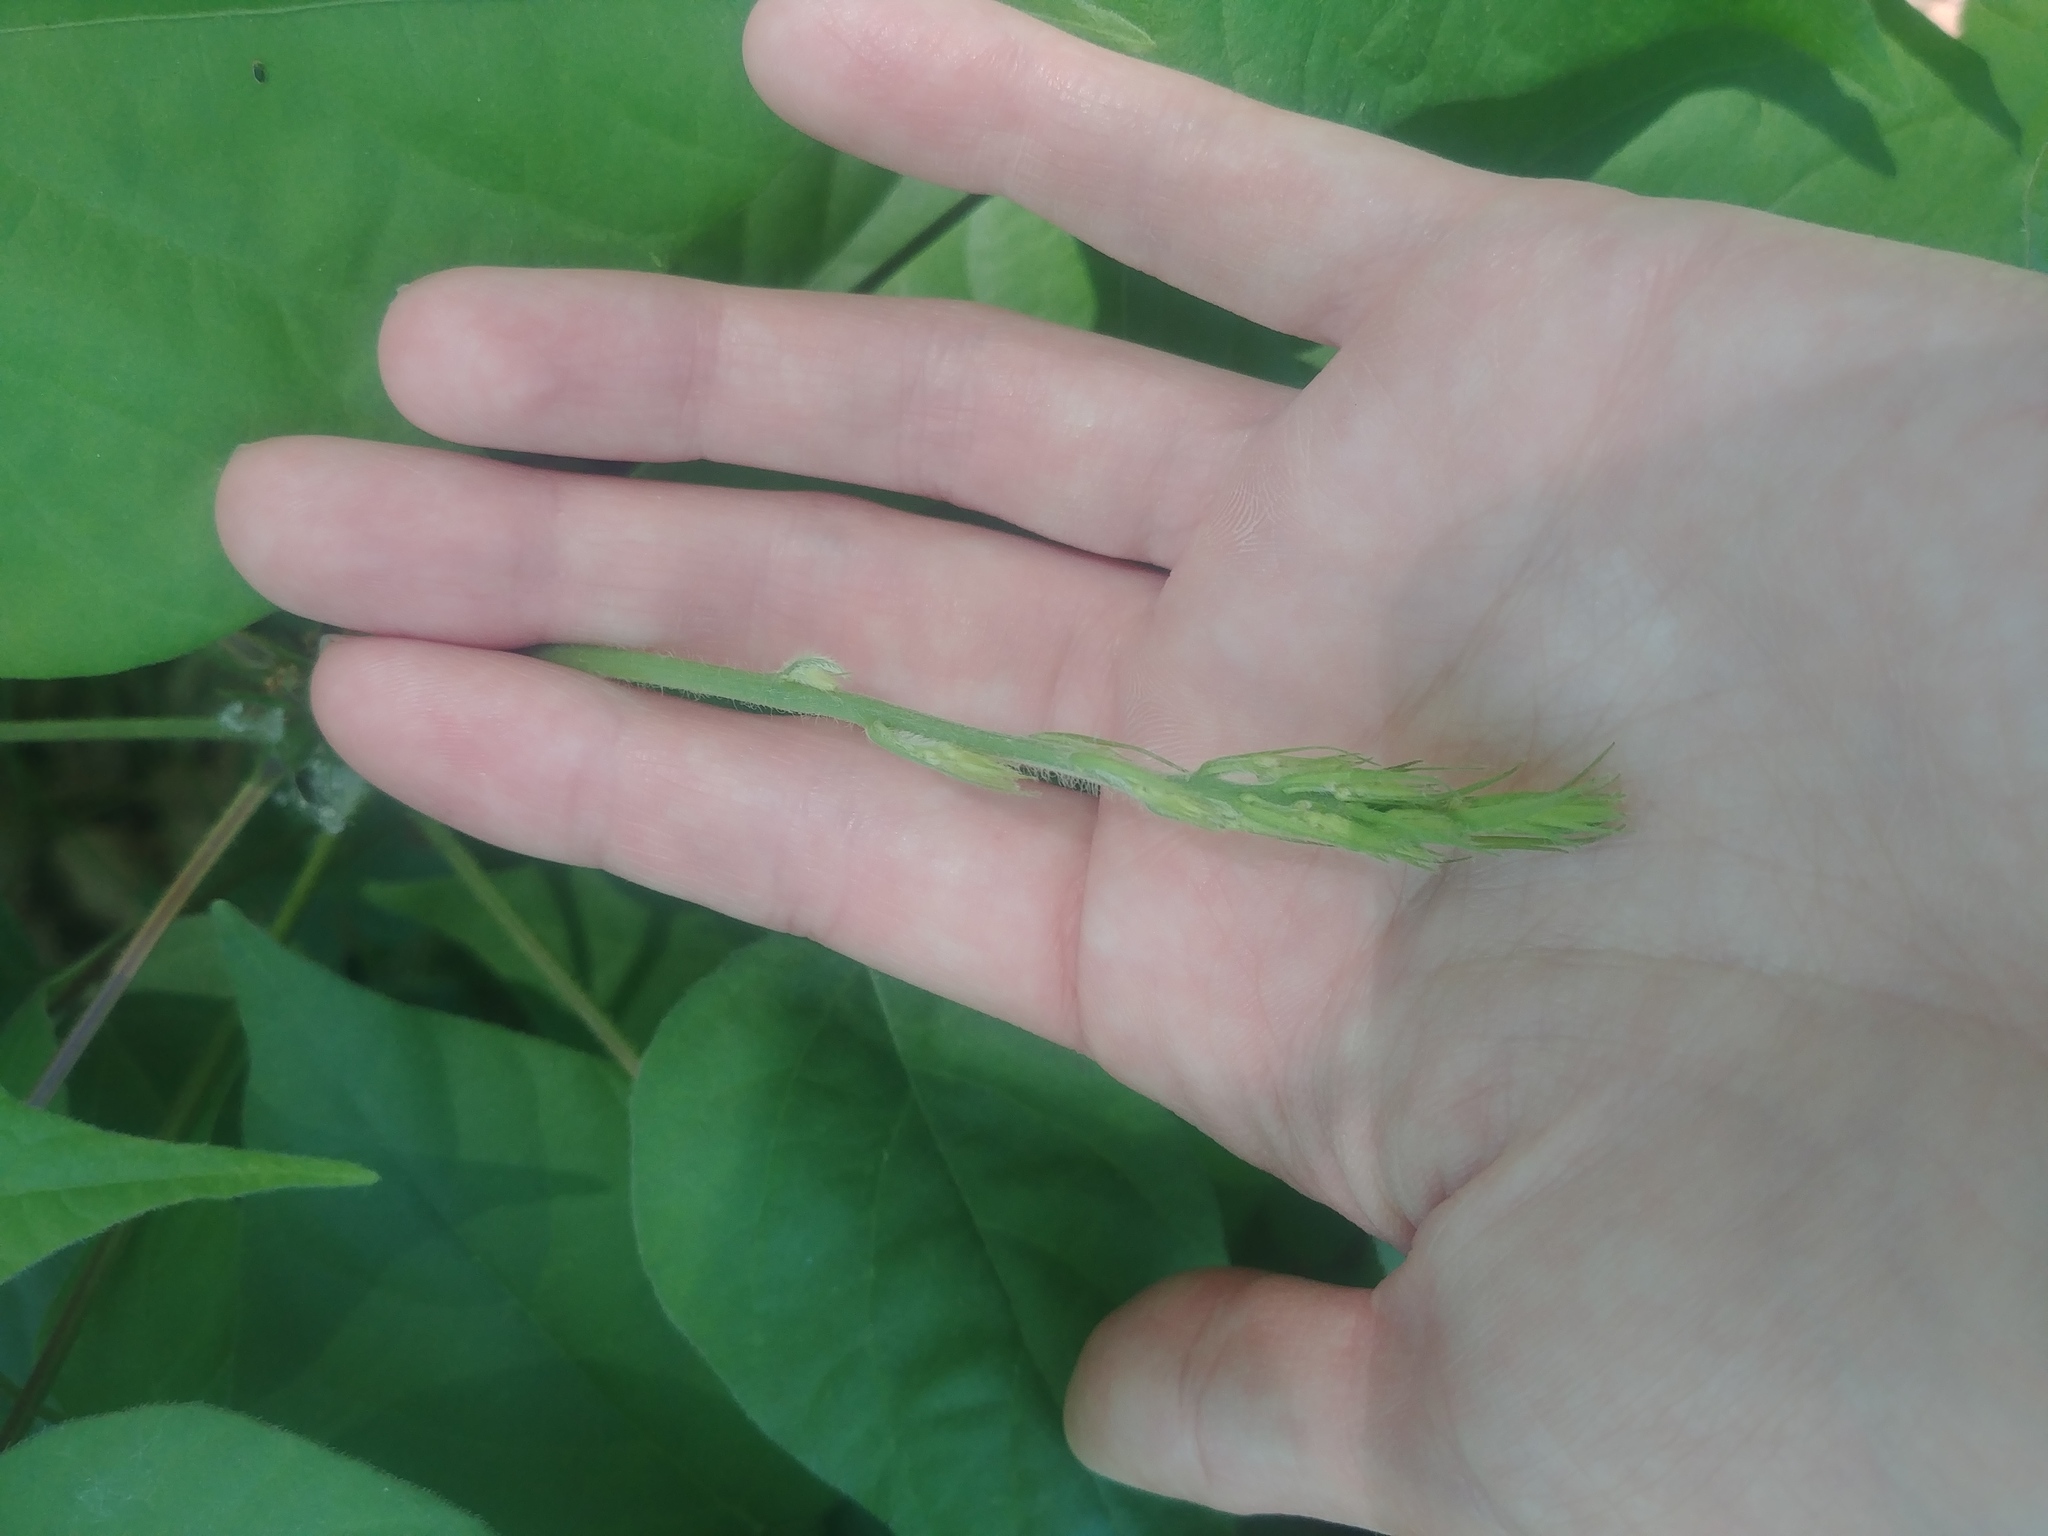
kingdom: Plantae
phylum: Tracheophyta
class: Magnoliopsida
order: Fabales
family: Fabaceae
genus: Hylodesmum
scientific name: Hylodesmum glutinosum
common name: Clustered-leaved tick-trefoil
